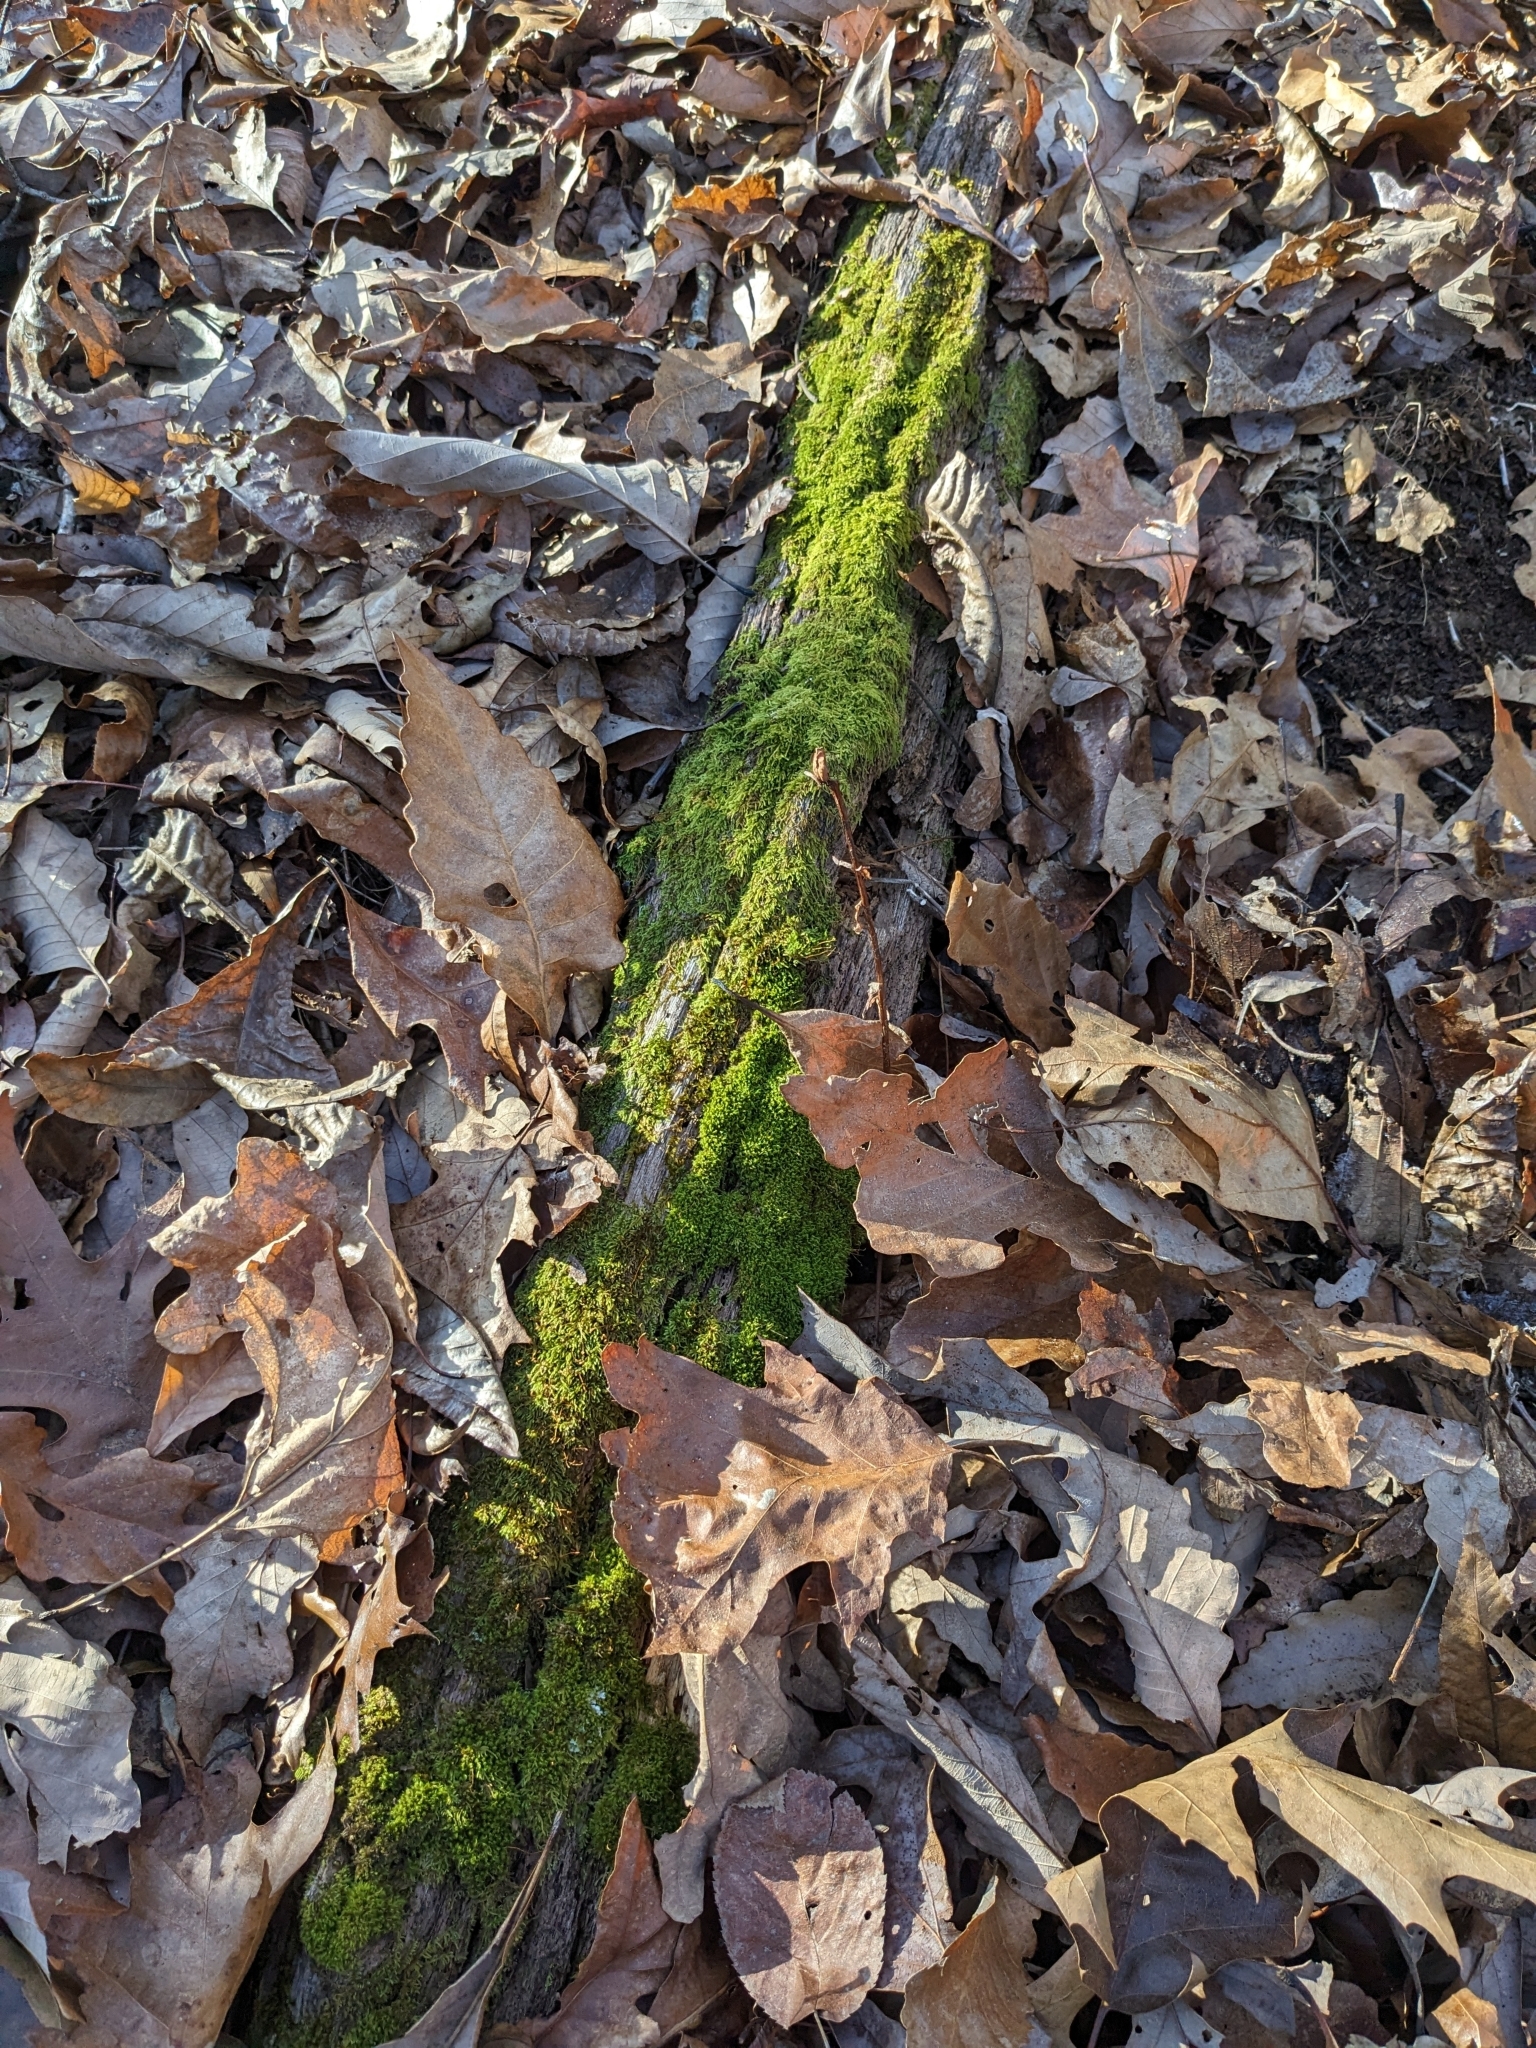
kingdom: Plantae
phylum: Tracheophyta
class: Magnoliopsida
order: Ericales
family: Ericaceae
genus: Monotropa
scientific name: Monotropa uniflora
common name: Convulsion root
